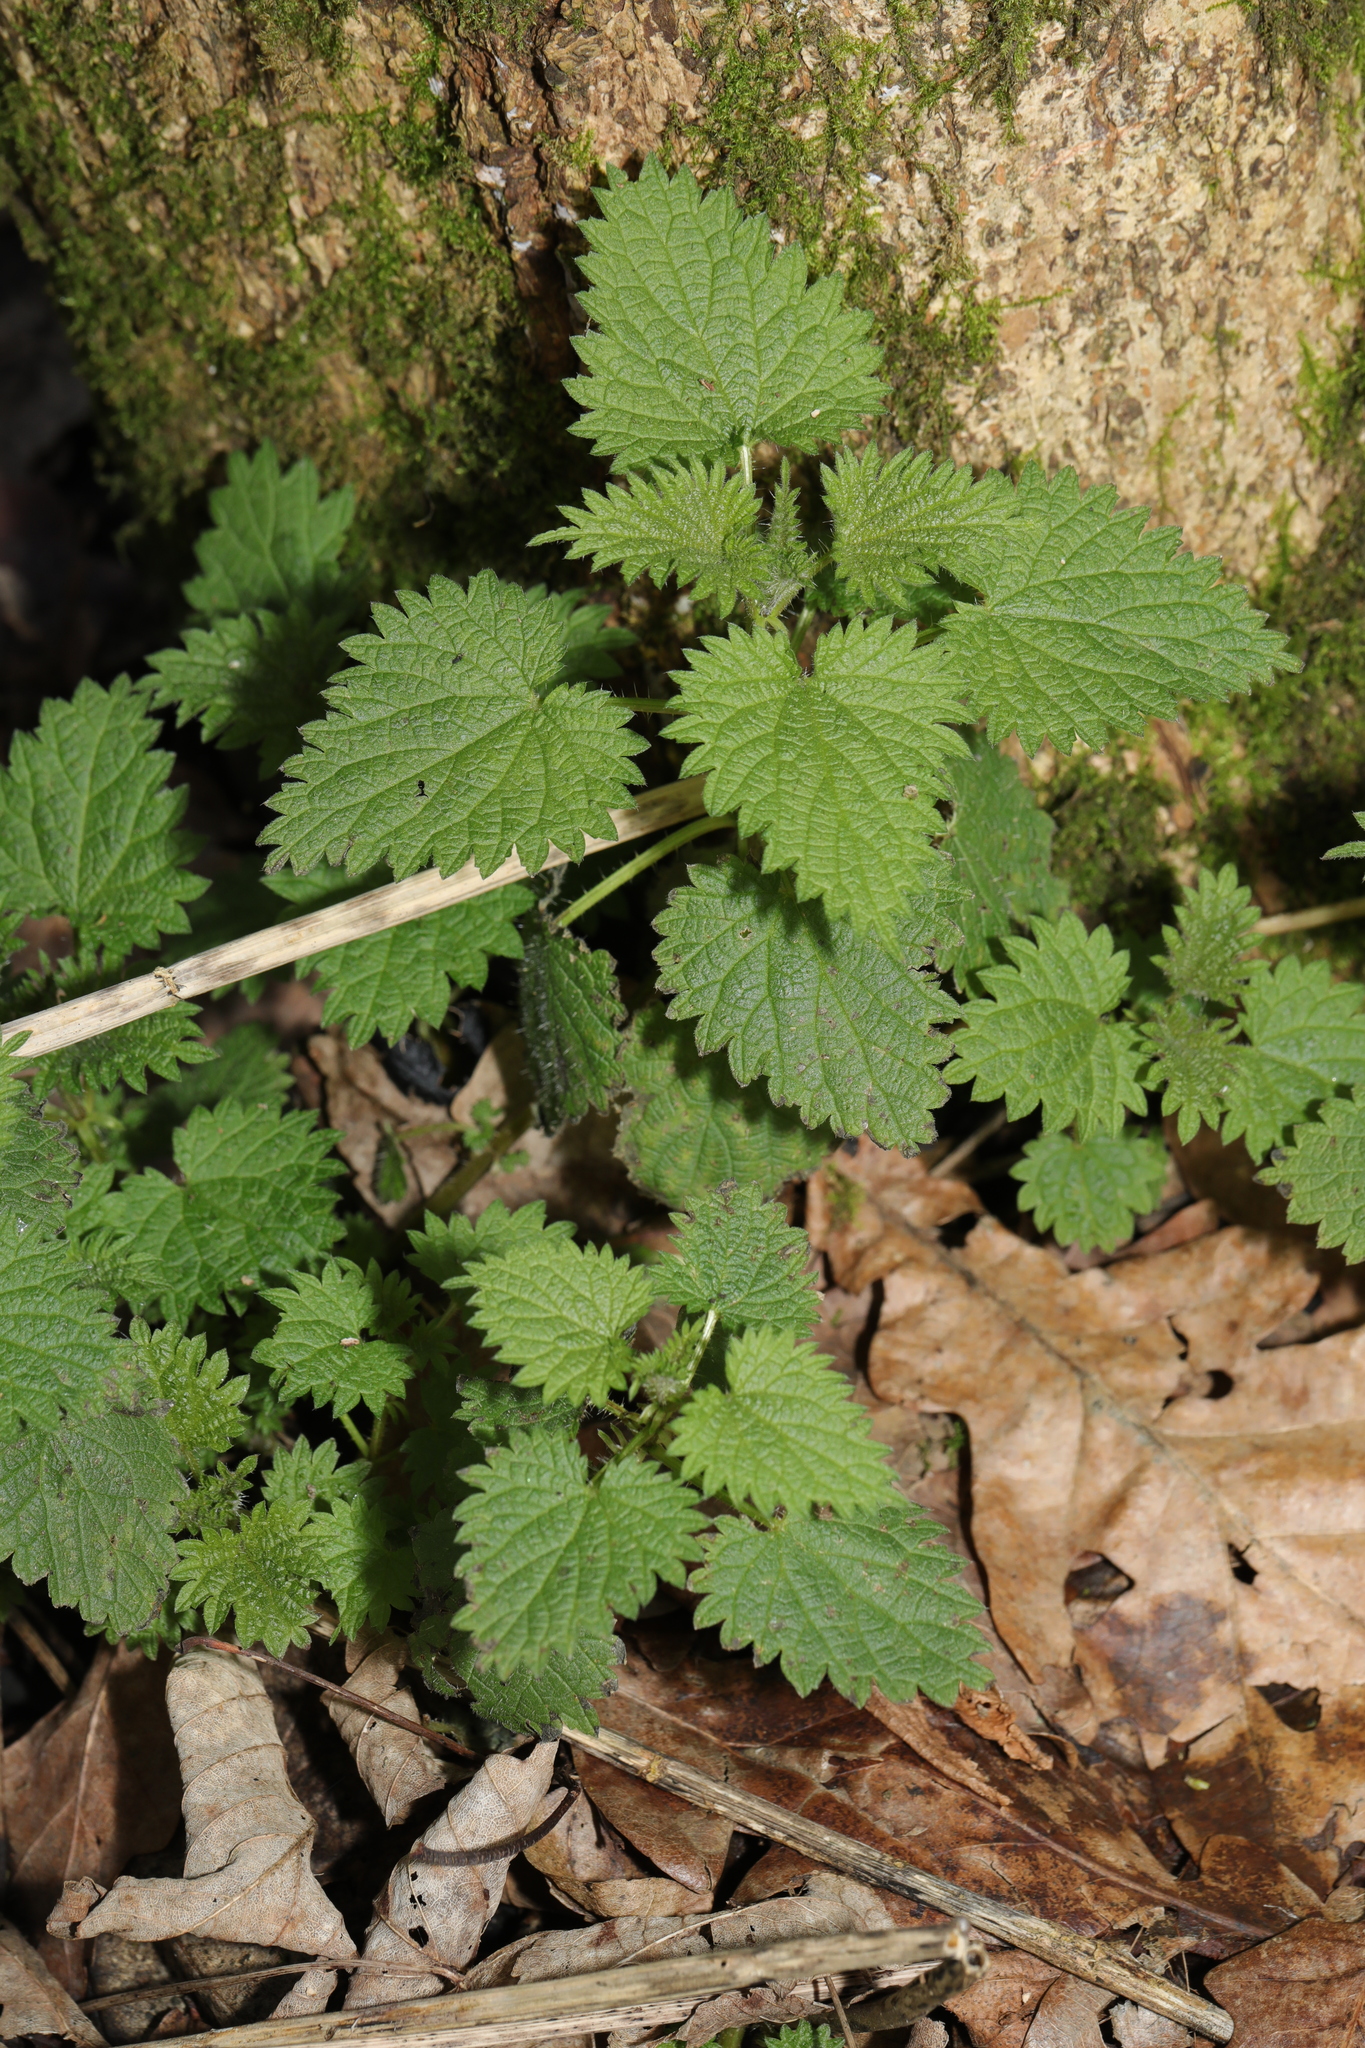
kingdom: Plantae
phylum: Tracheophyta
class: Magnoliopsida
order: Rosales
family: Urticaceae
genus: Urtica
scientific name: Urtica dioica
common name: Common nettle
